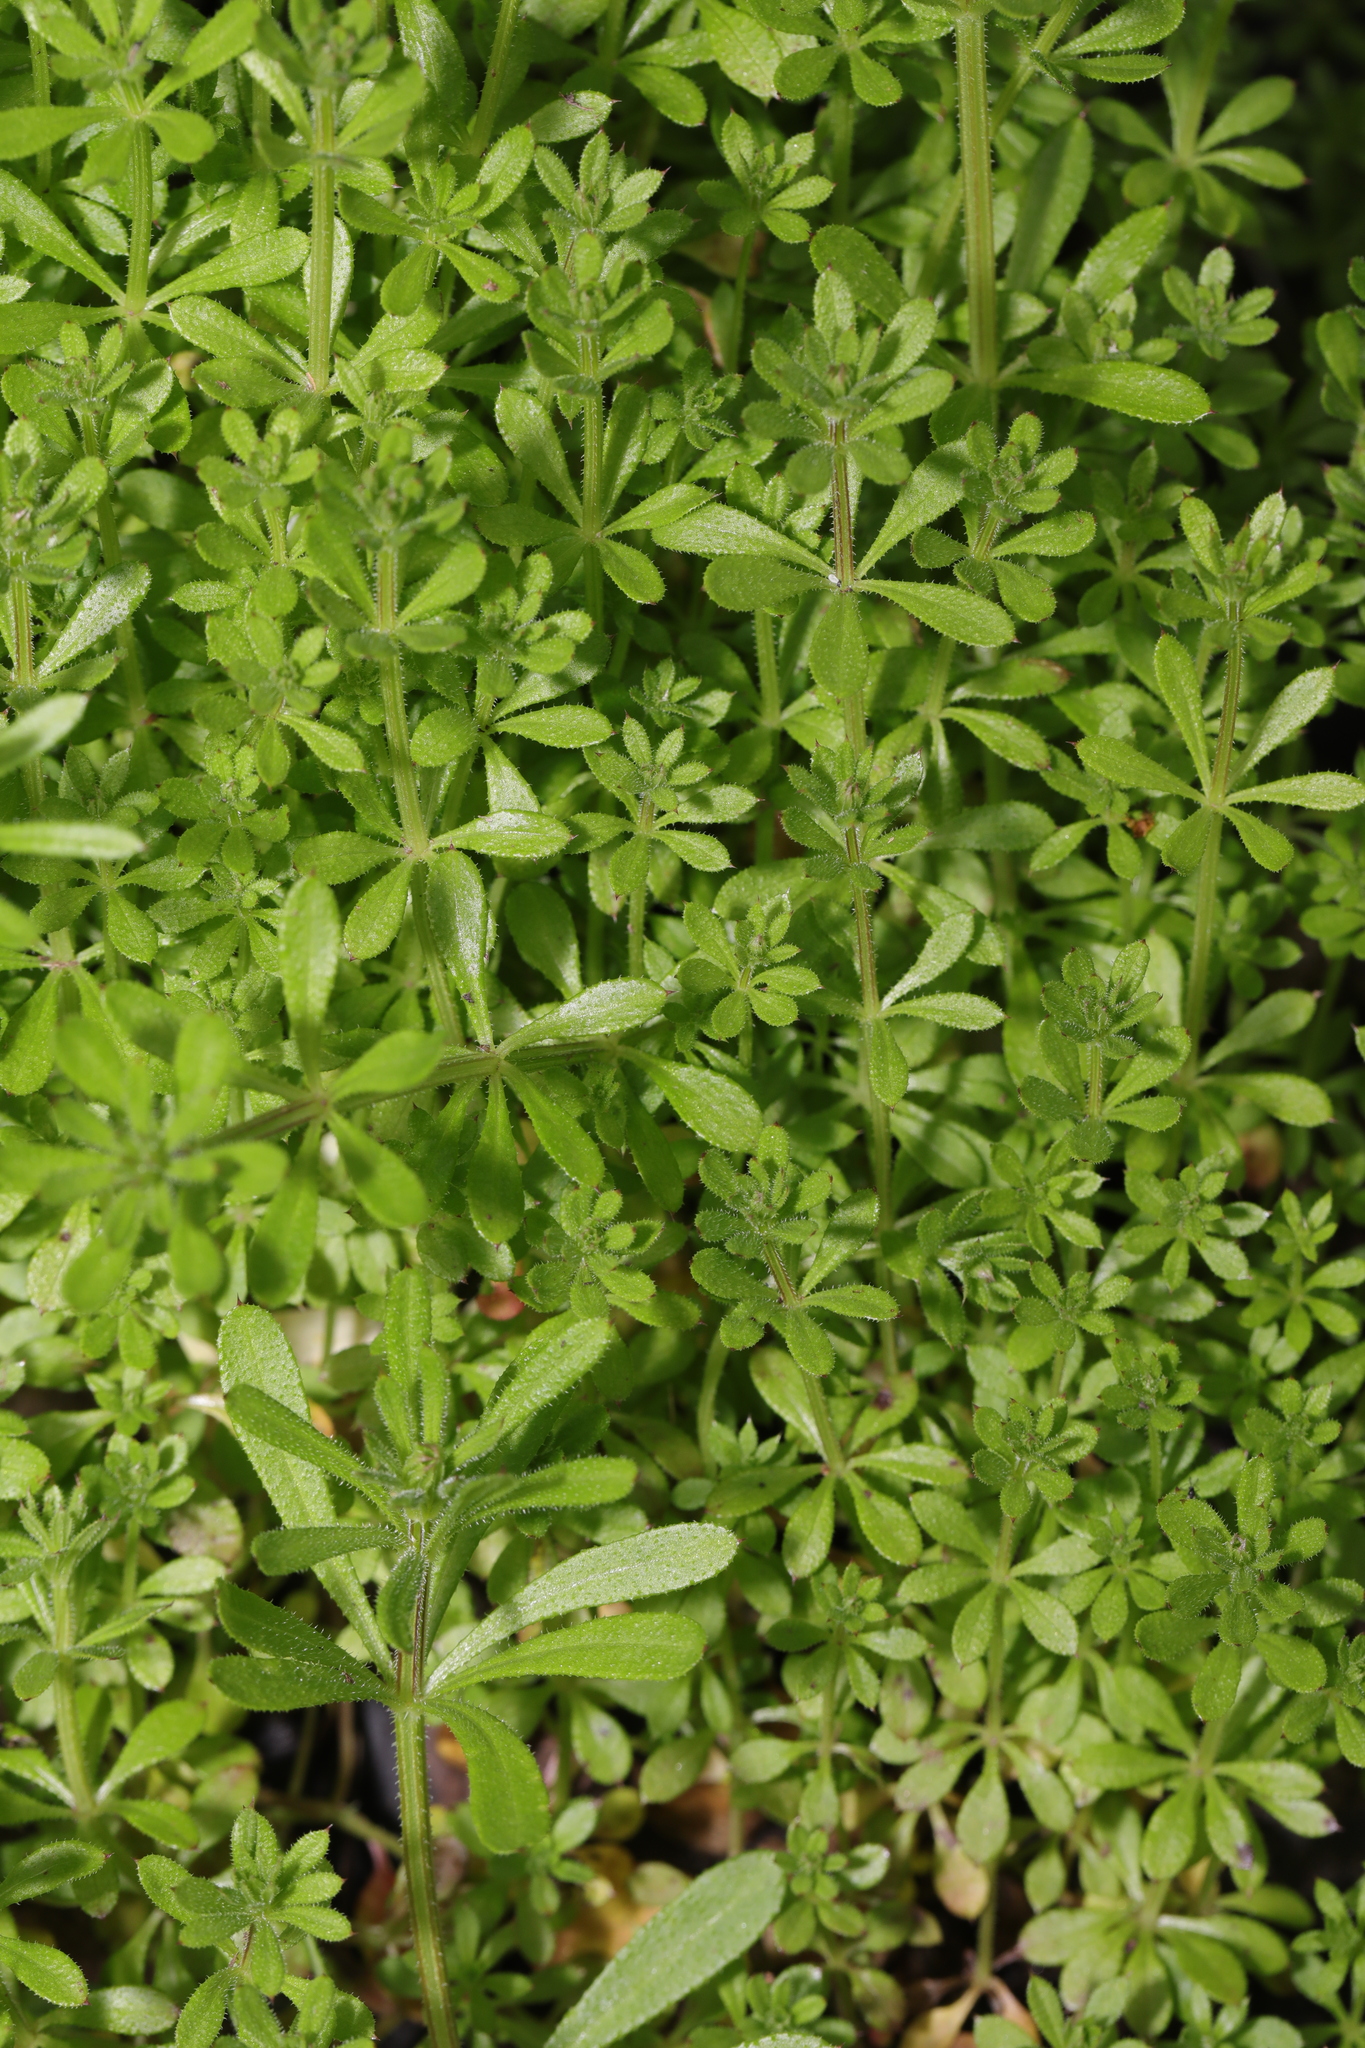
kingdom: Plantae
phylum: Tracheophyta
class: Magnoliopsida
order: Gentianales
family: Rubiaceae
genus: Galium
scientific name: Galium aparine
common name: Cleavers
